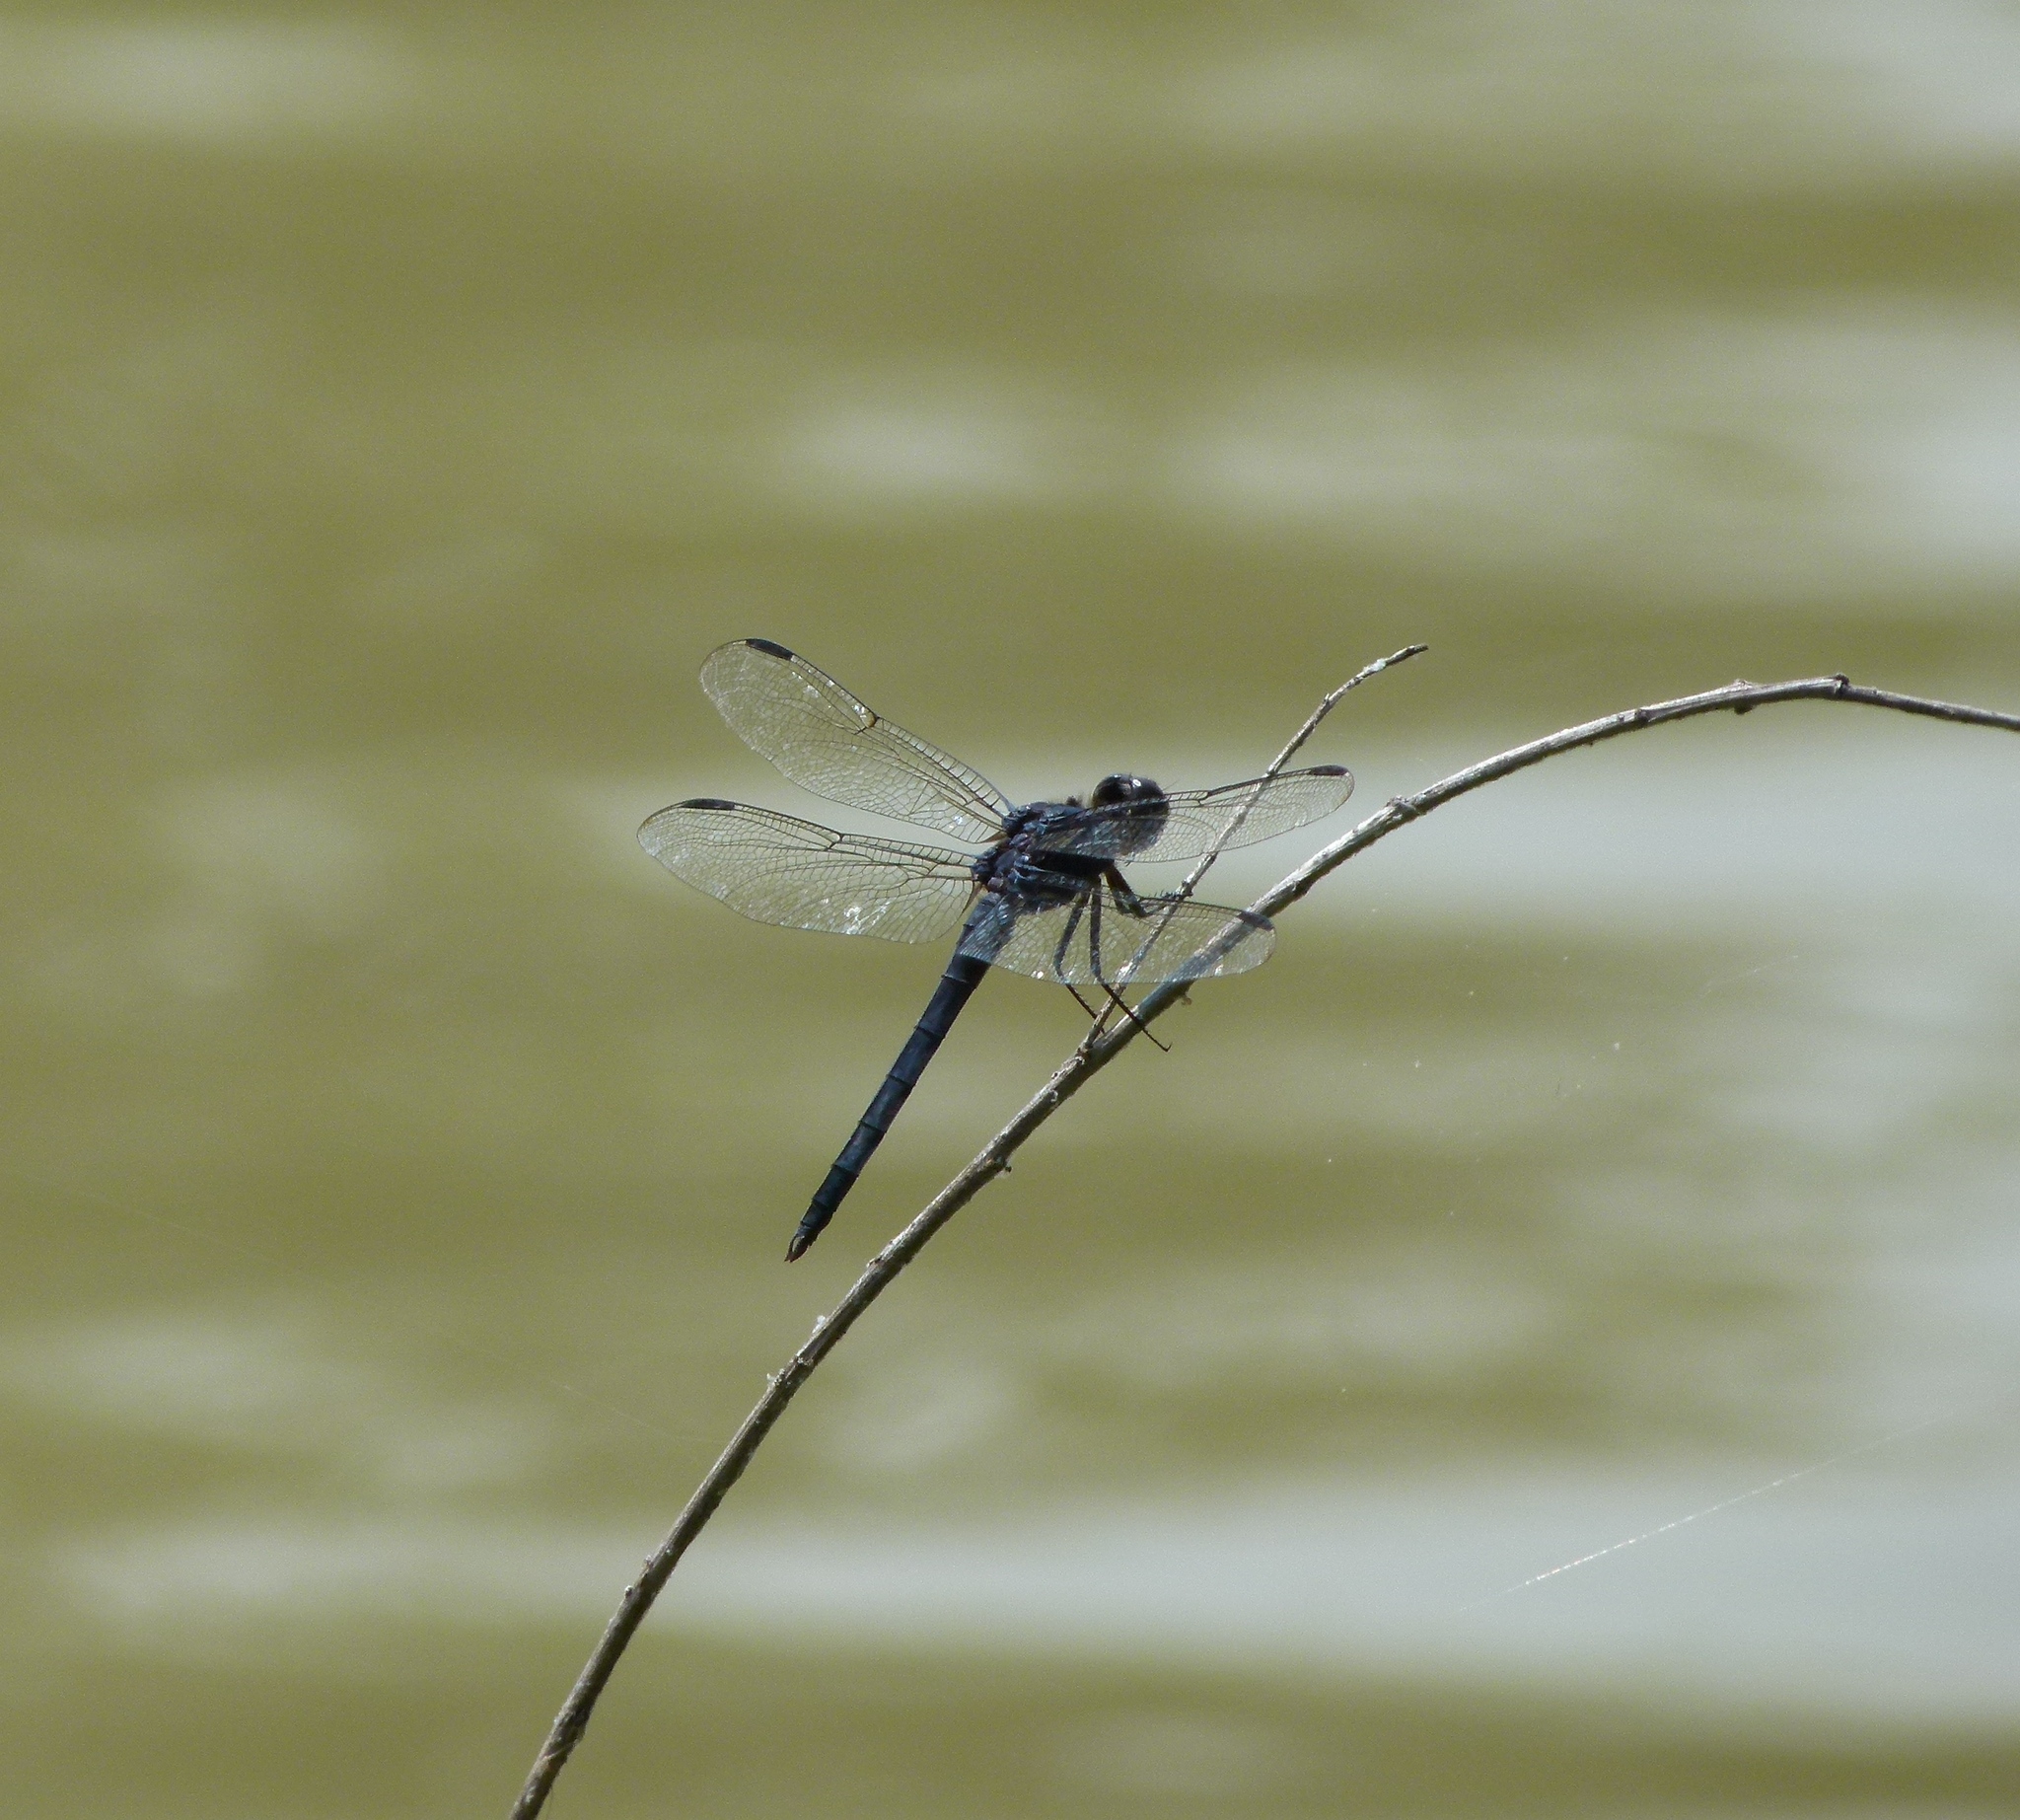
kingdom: Animalia
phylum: Arthropoda
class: Insecta
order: Odonata
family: Libellulidae
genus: Libellula
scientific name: Libellula incesta
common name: Slaty skimmer
